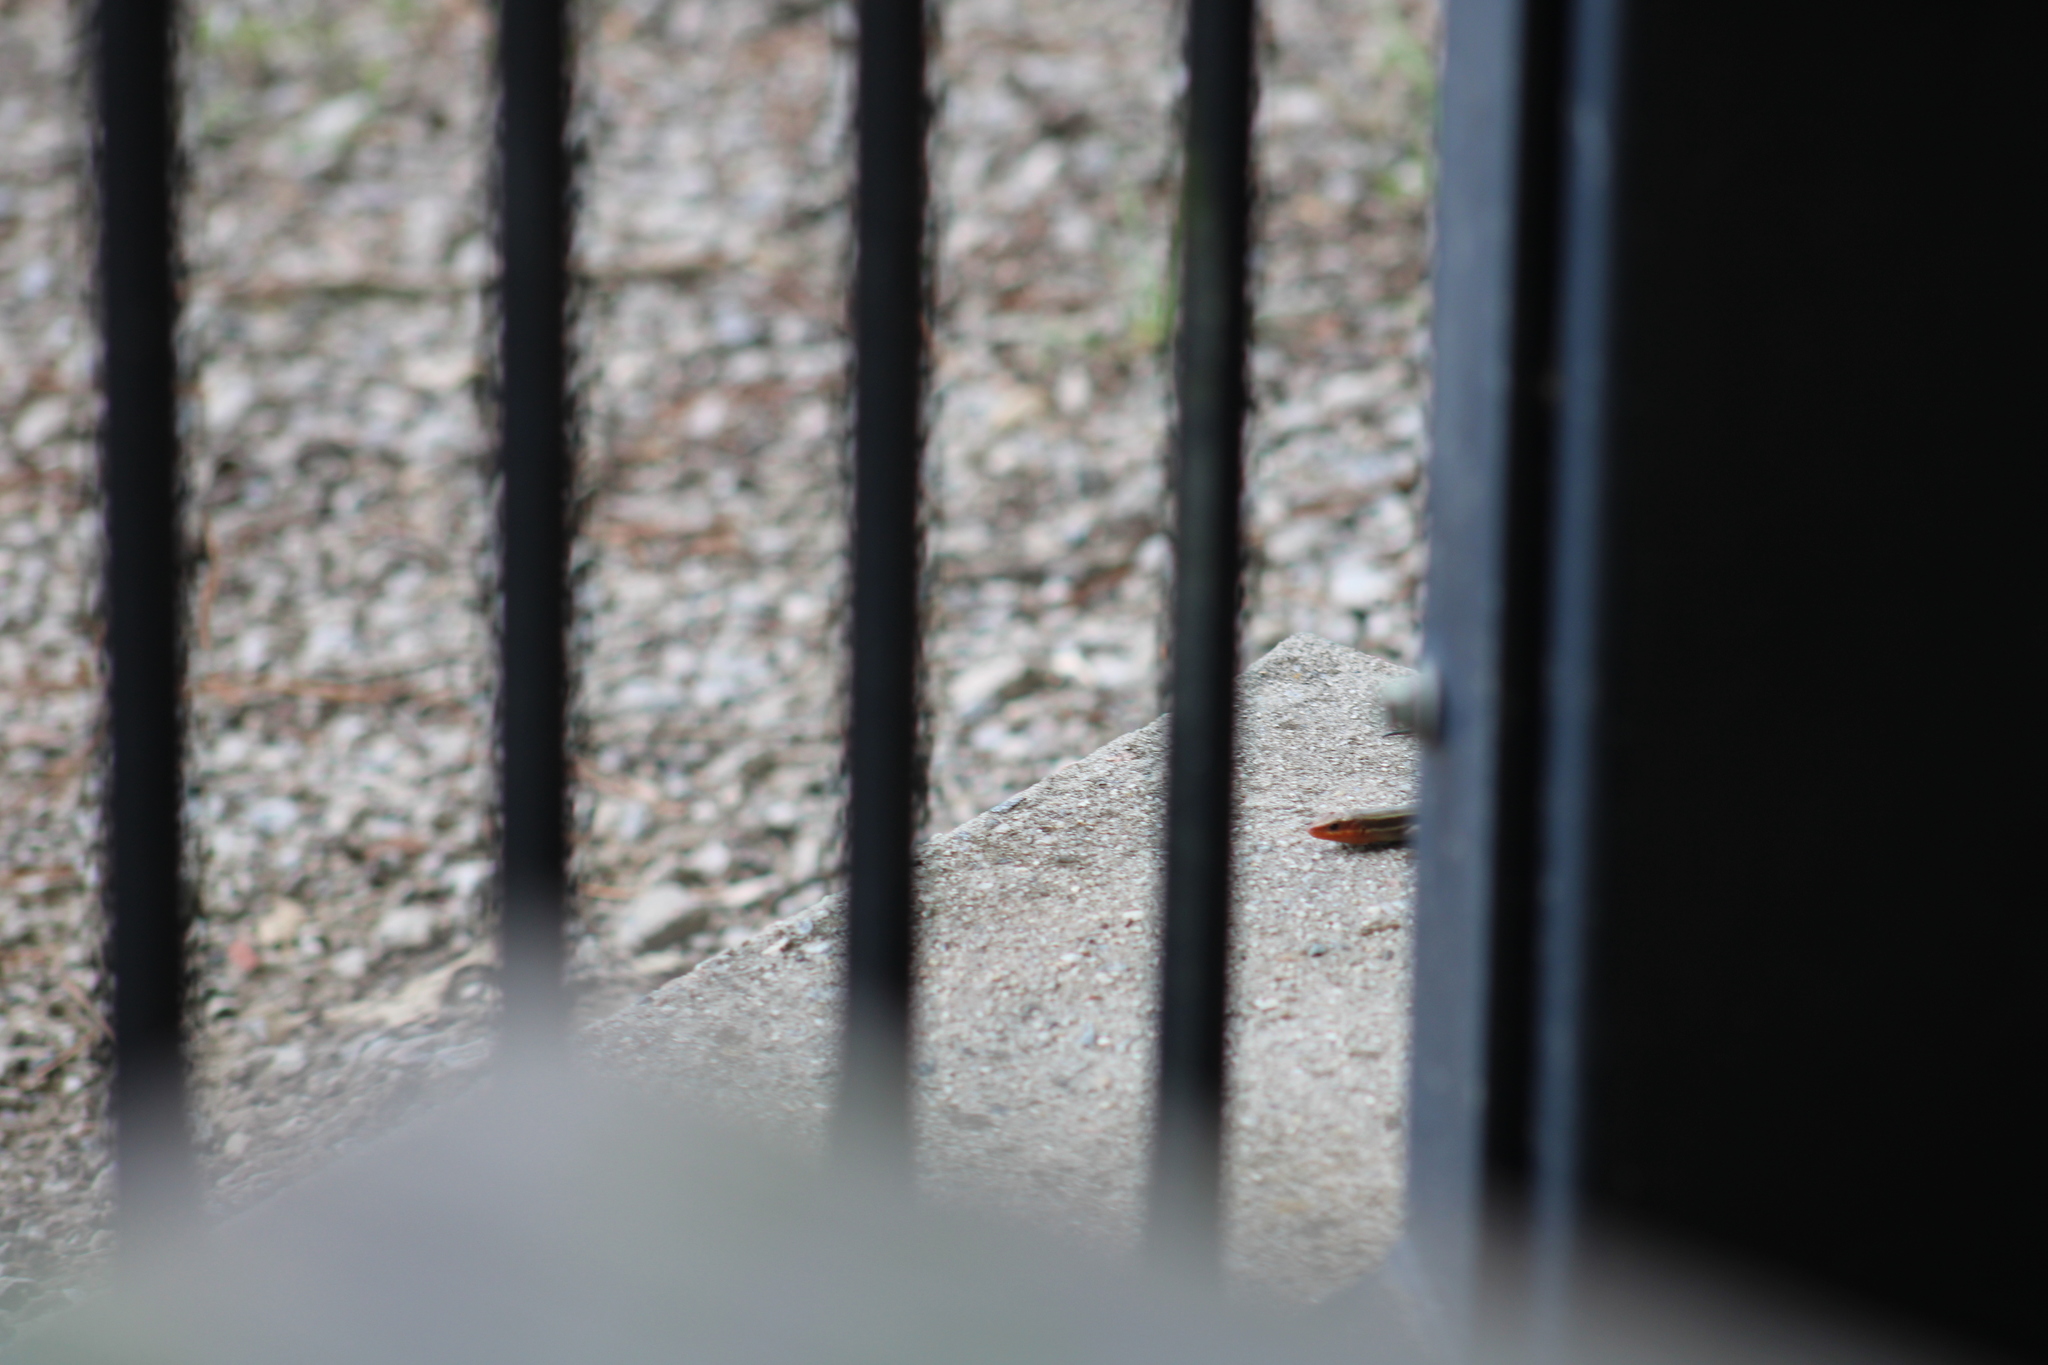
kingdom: Animalia
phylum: Chordata
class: Squamata
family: Scincidae
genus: Plestiodon
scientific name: Plestiodon fasciatus
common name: Five-lined skink
